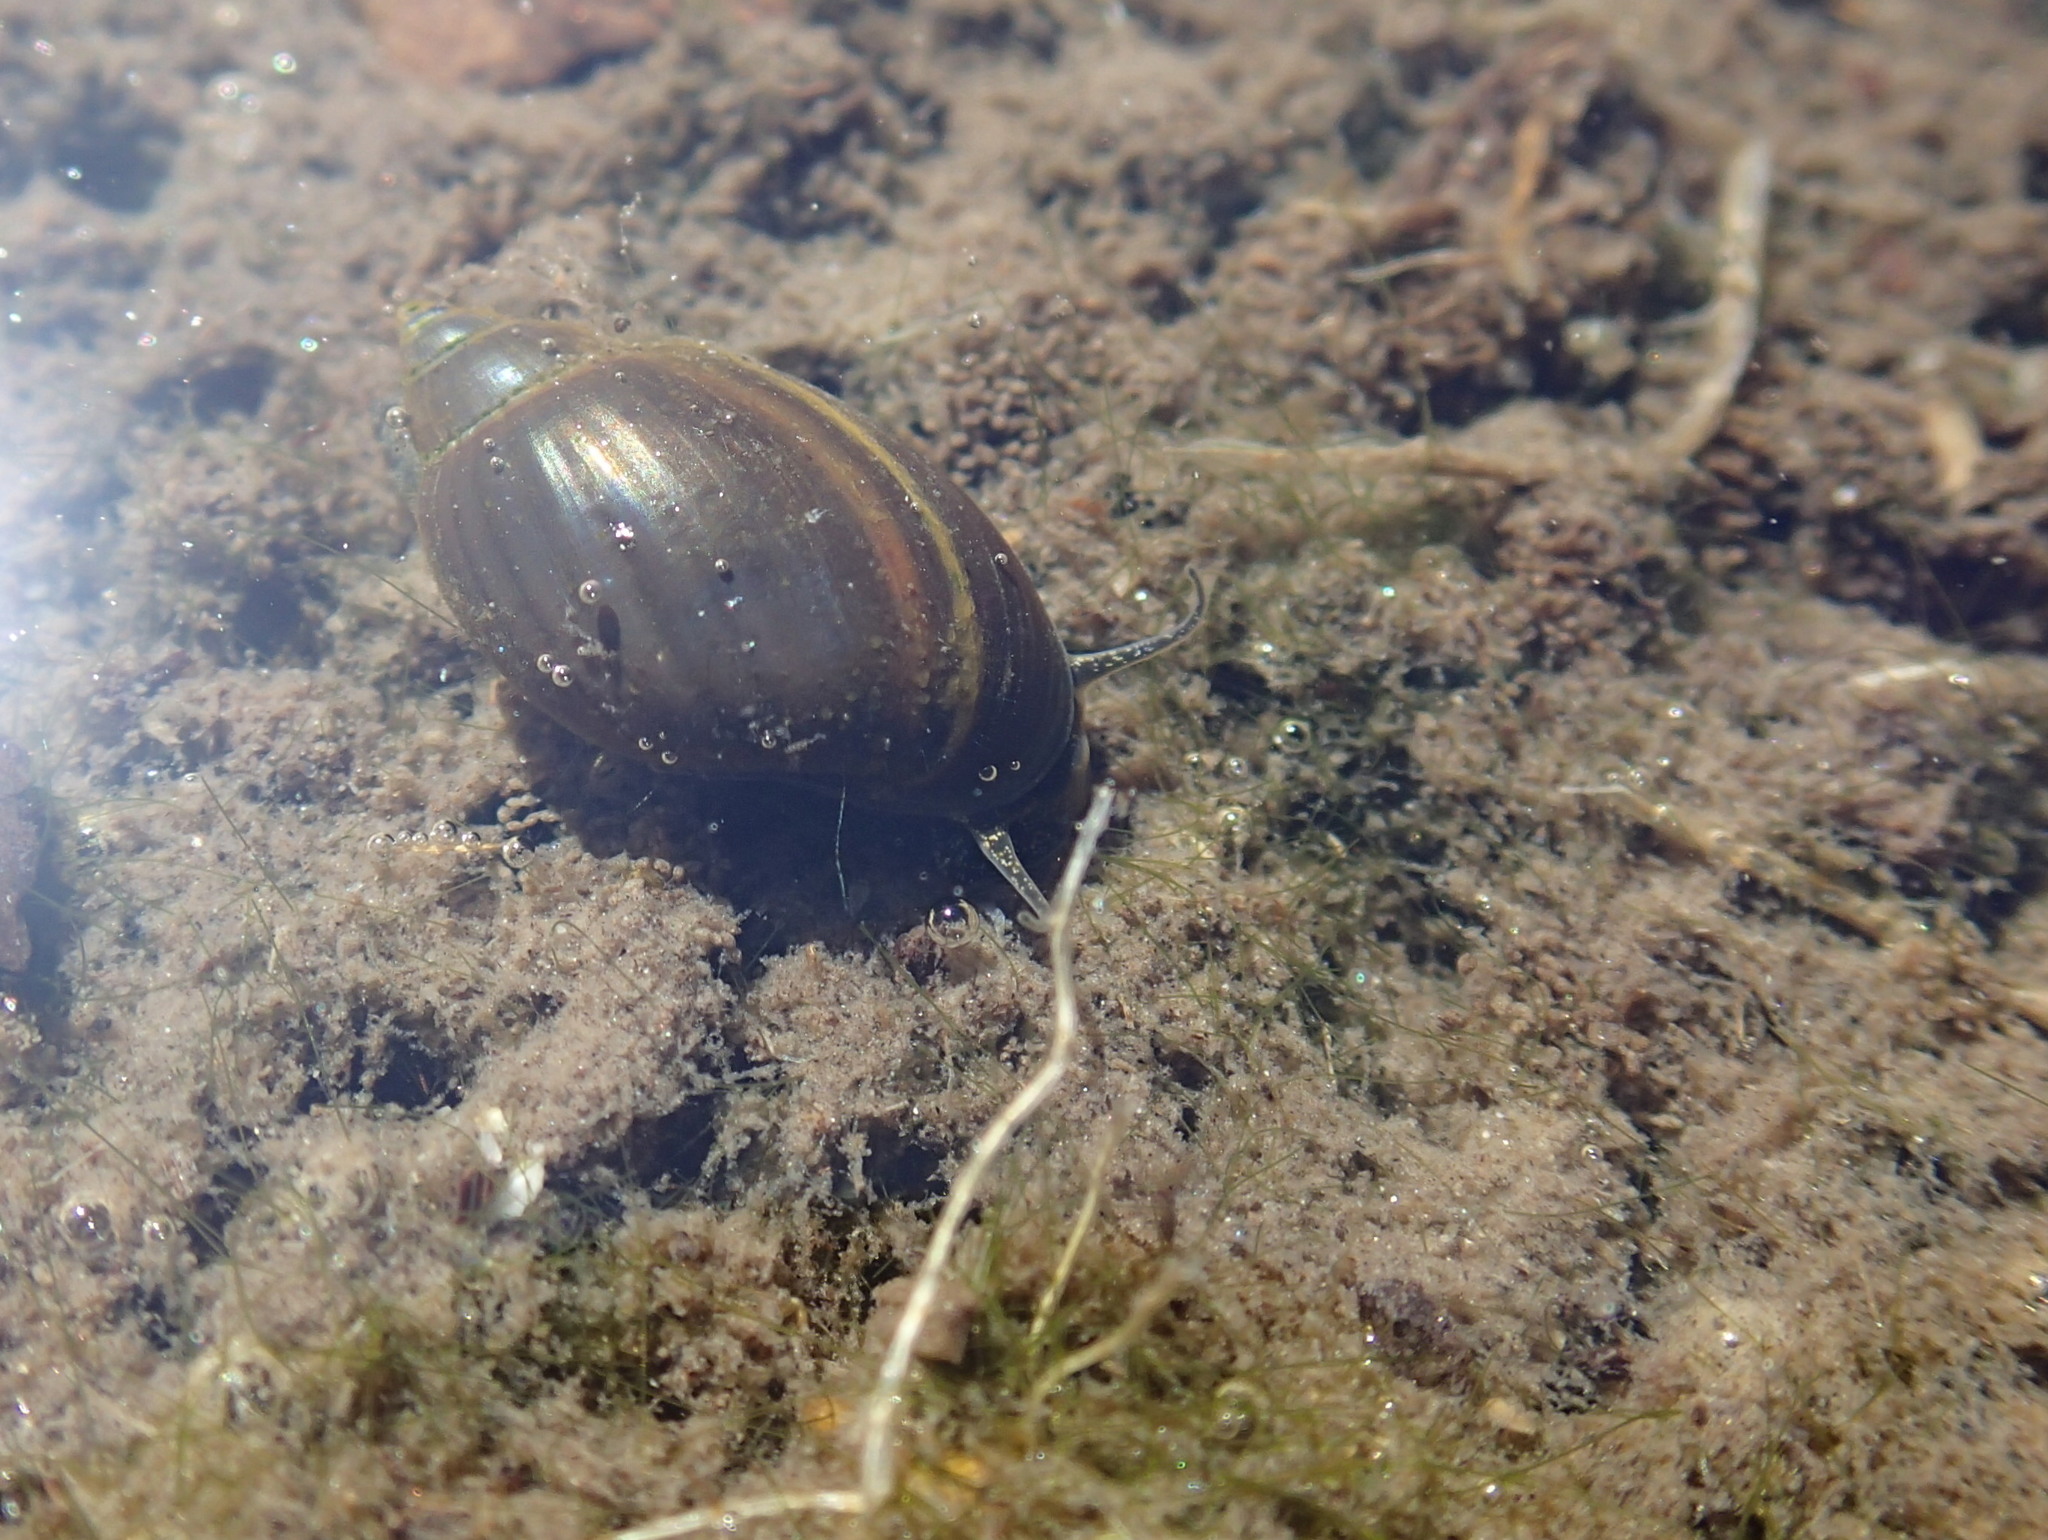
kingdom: Animalia
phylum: Mollusca
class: Gastropoda
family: Physidae
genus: Physella
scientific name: Physella
